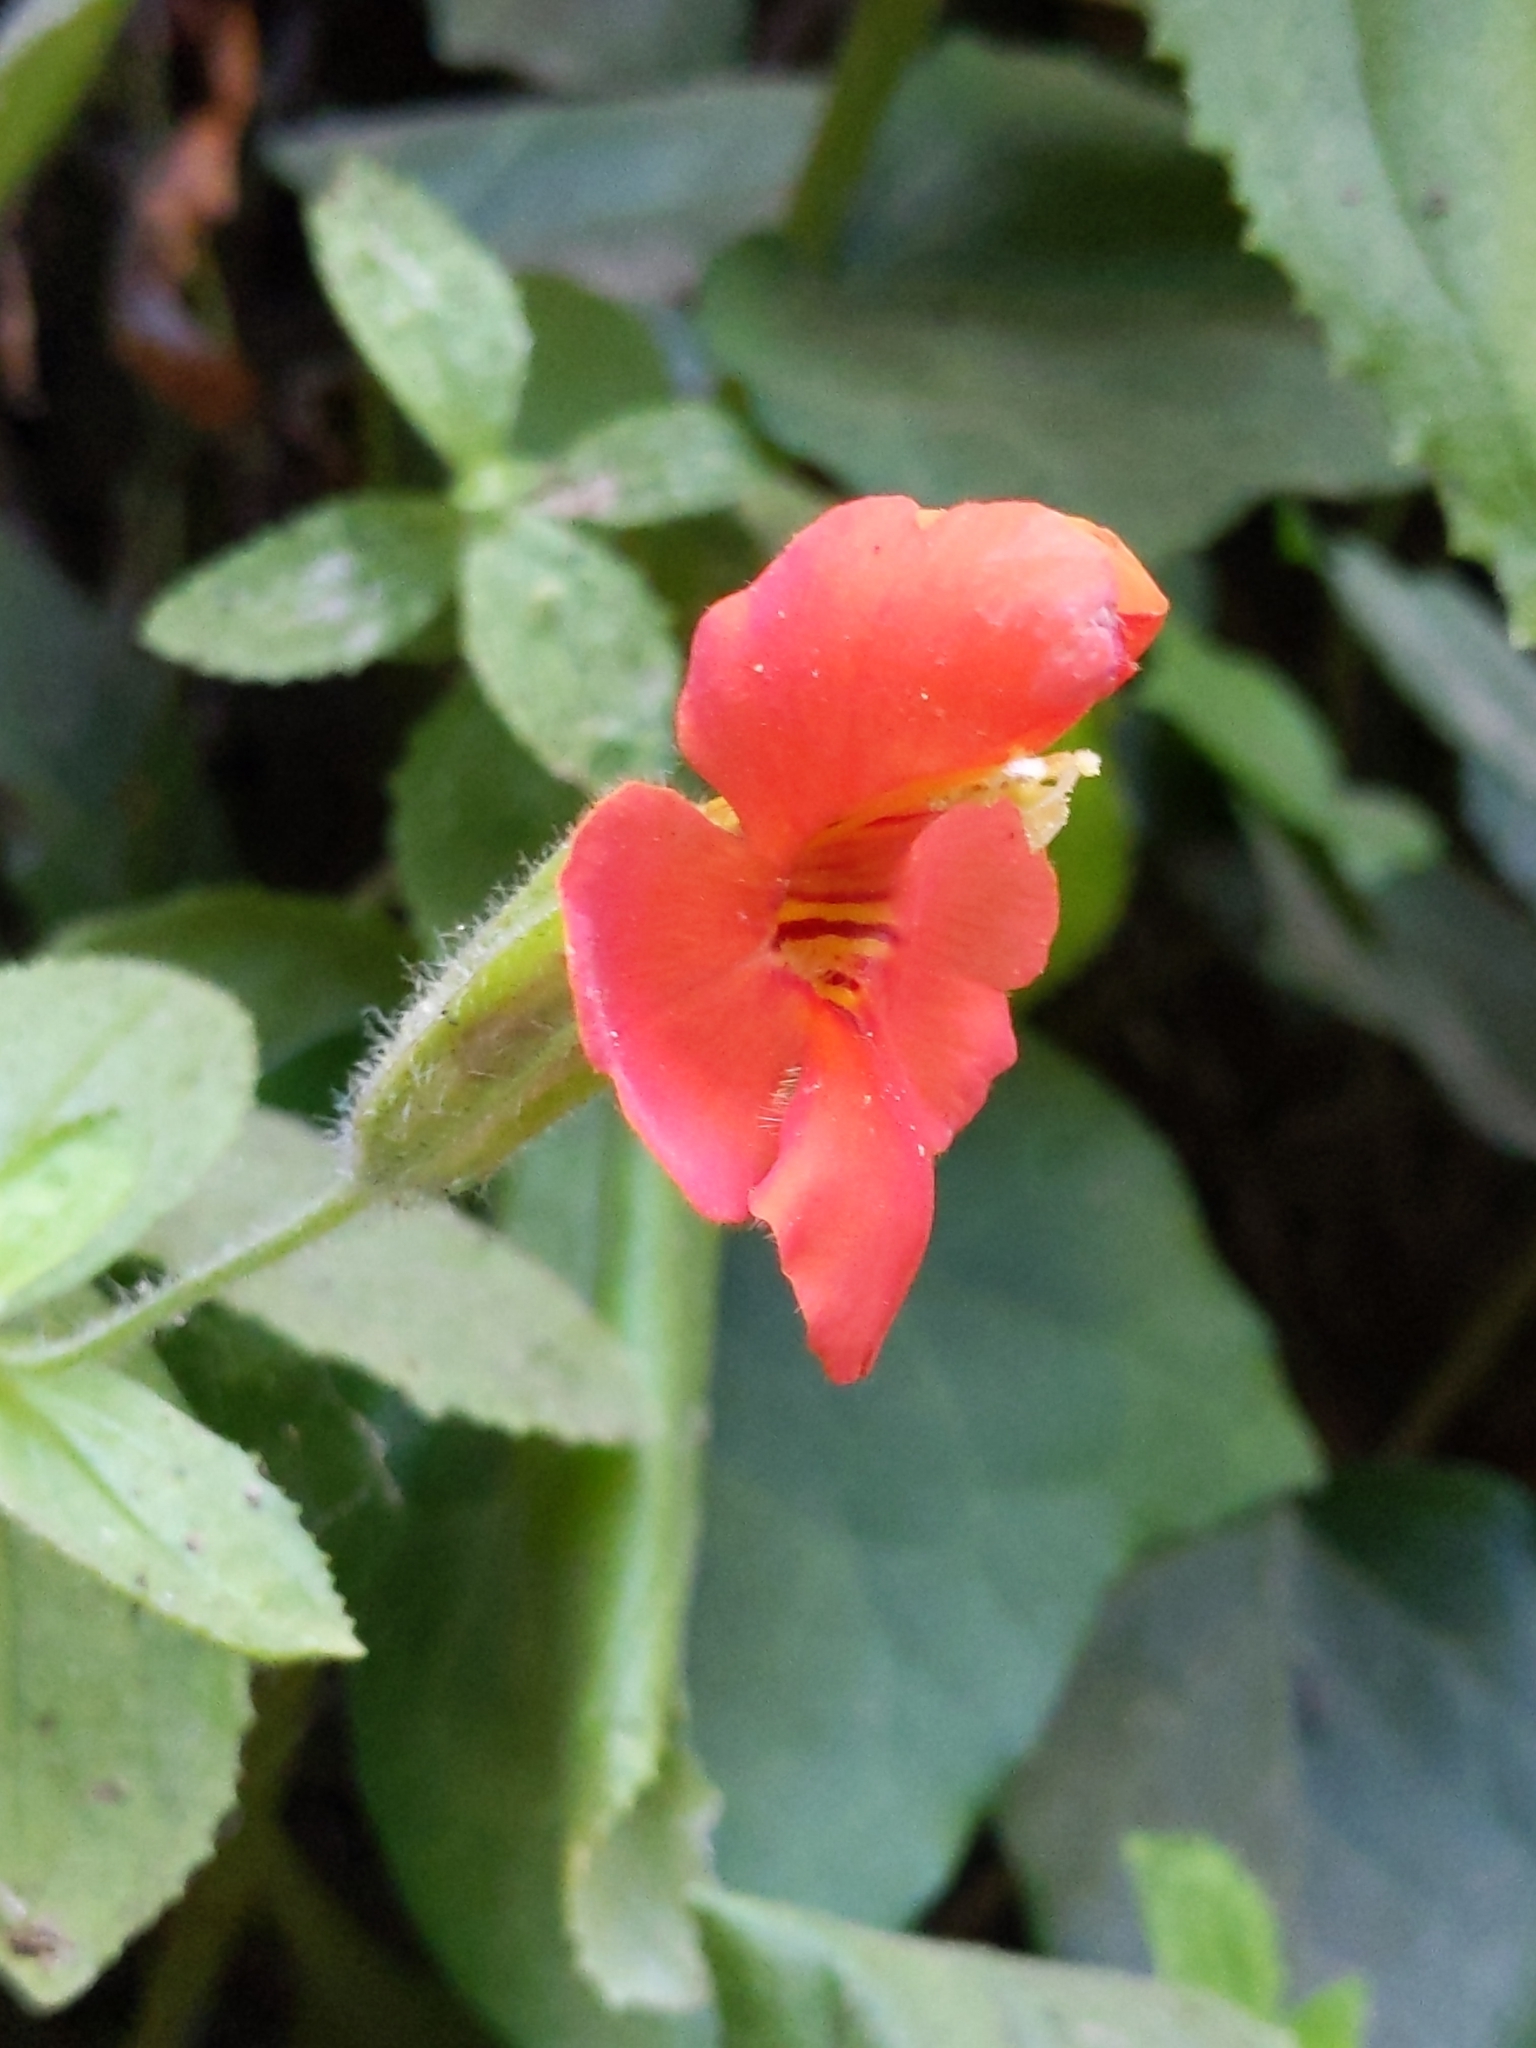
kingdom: Plantae
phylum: Tracheophyta
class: Magnoliopsida
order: Lamiales
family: Phrymaceae
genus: Erythranthe
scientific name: Erythranthe cardinalis
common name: Scarlet monkey-flower
